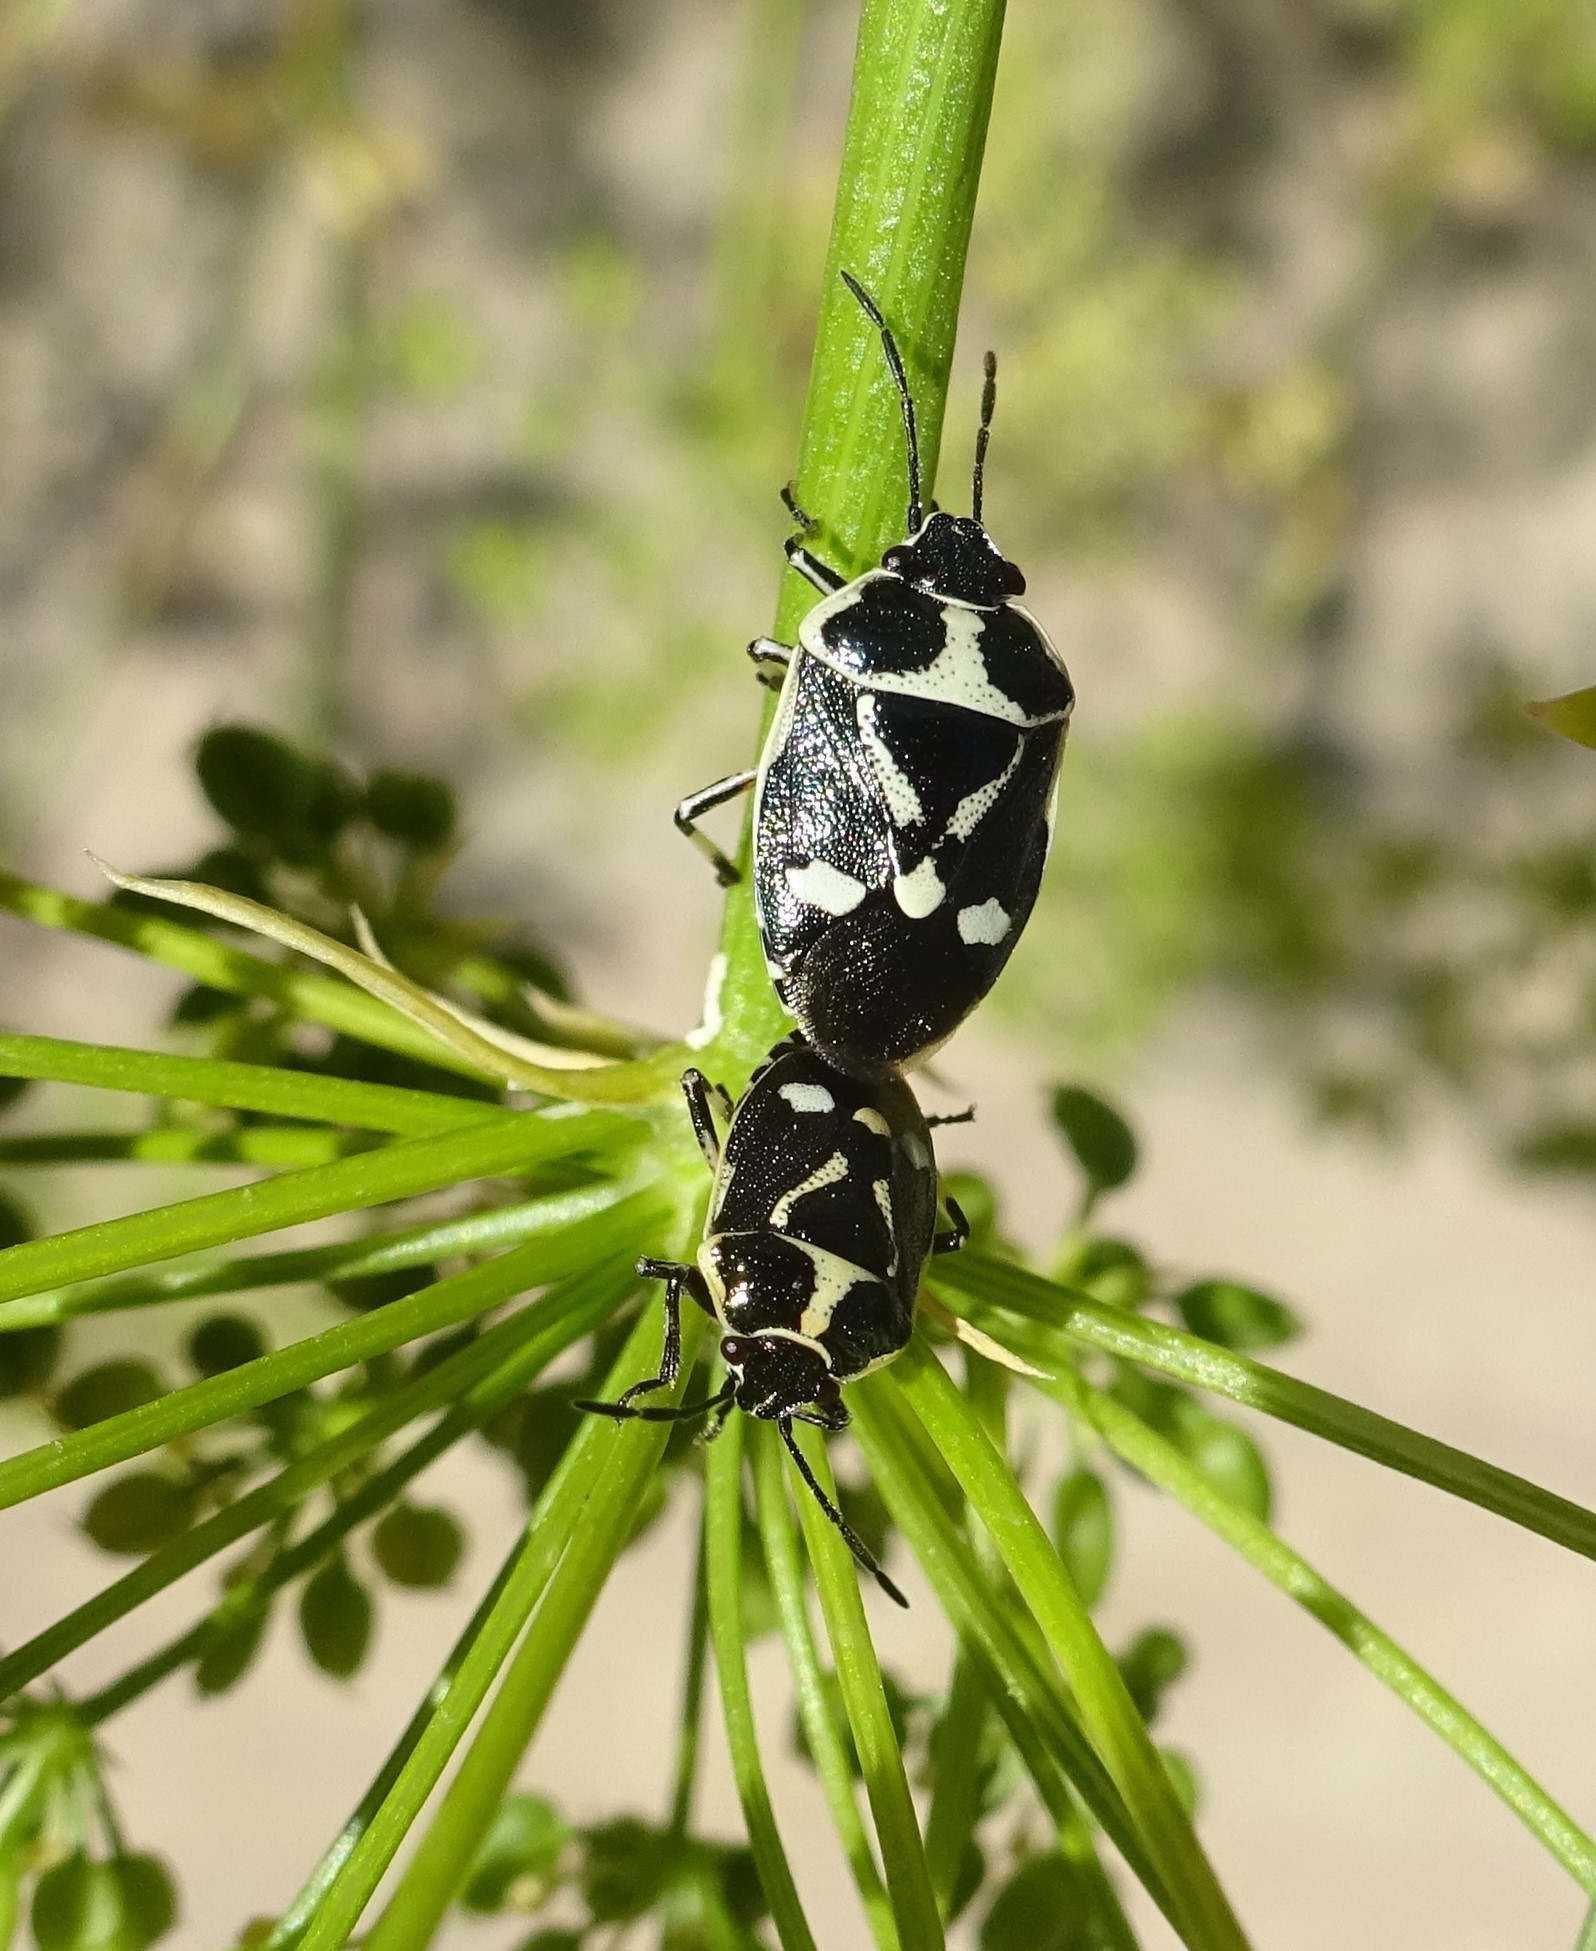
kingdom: Animalia
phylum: Arthropoda
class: Insecta
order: Hemiptera
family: Pentatomidae
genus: Eurydema
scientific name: Eurydema oleracea
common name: Cabbage bug
